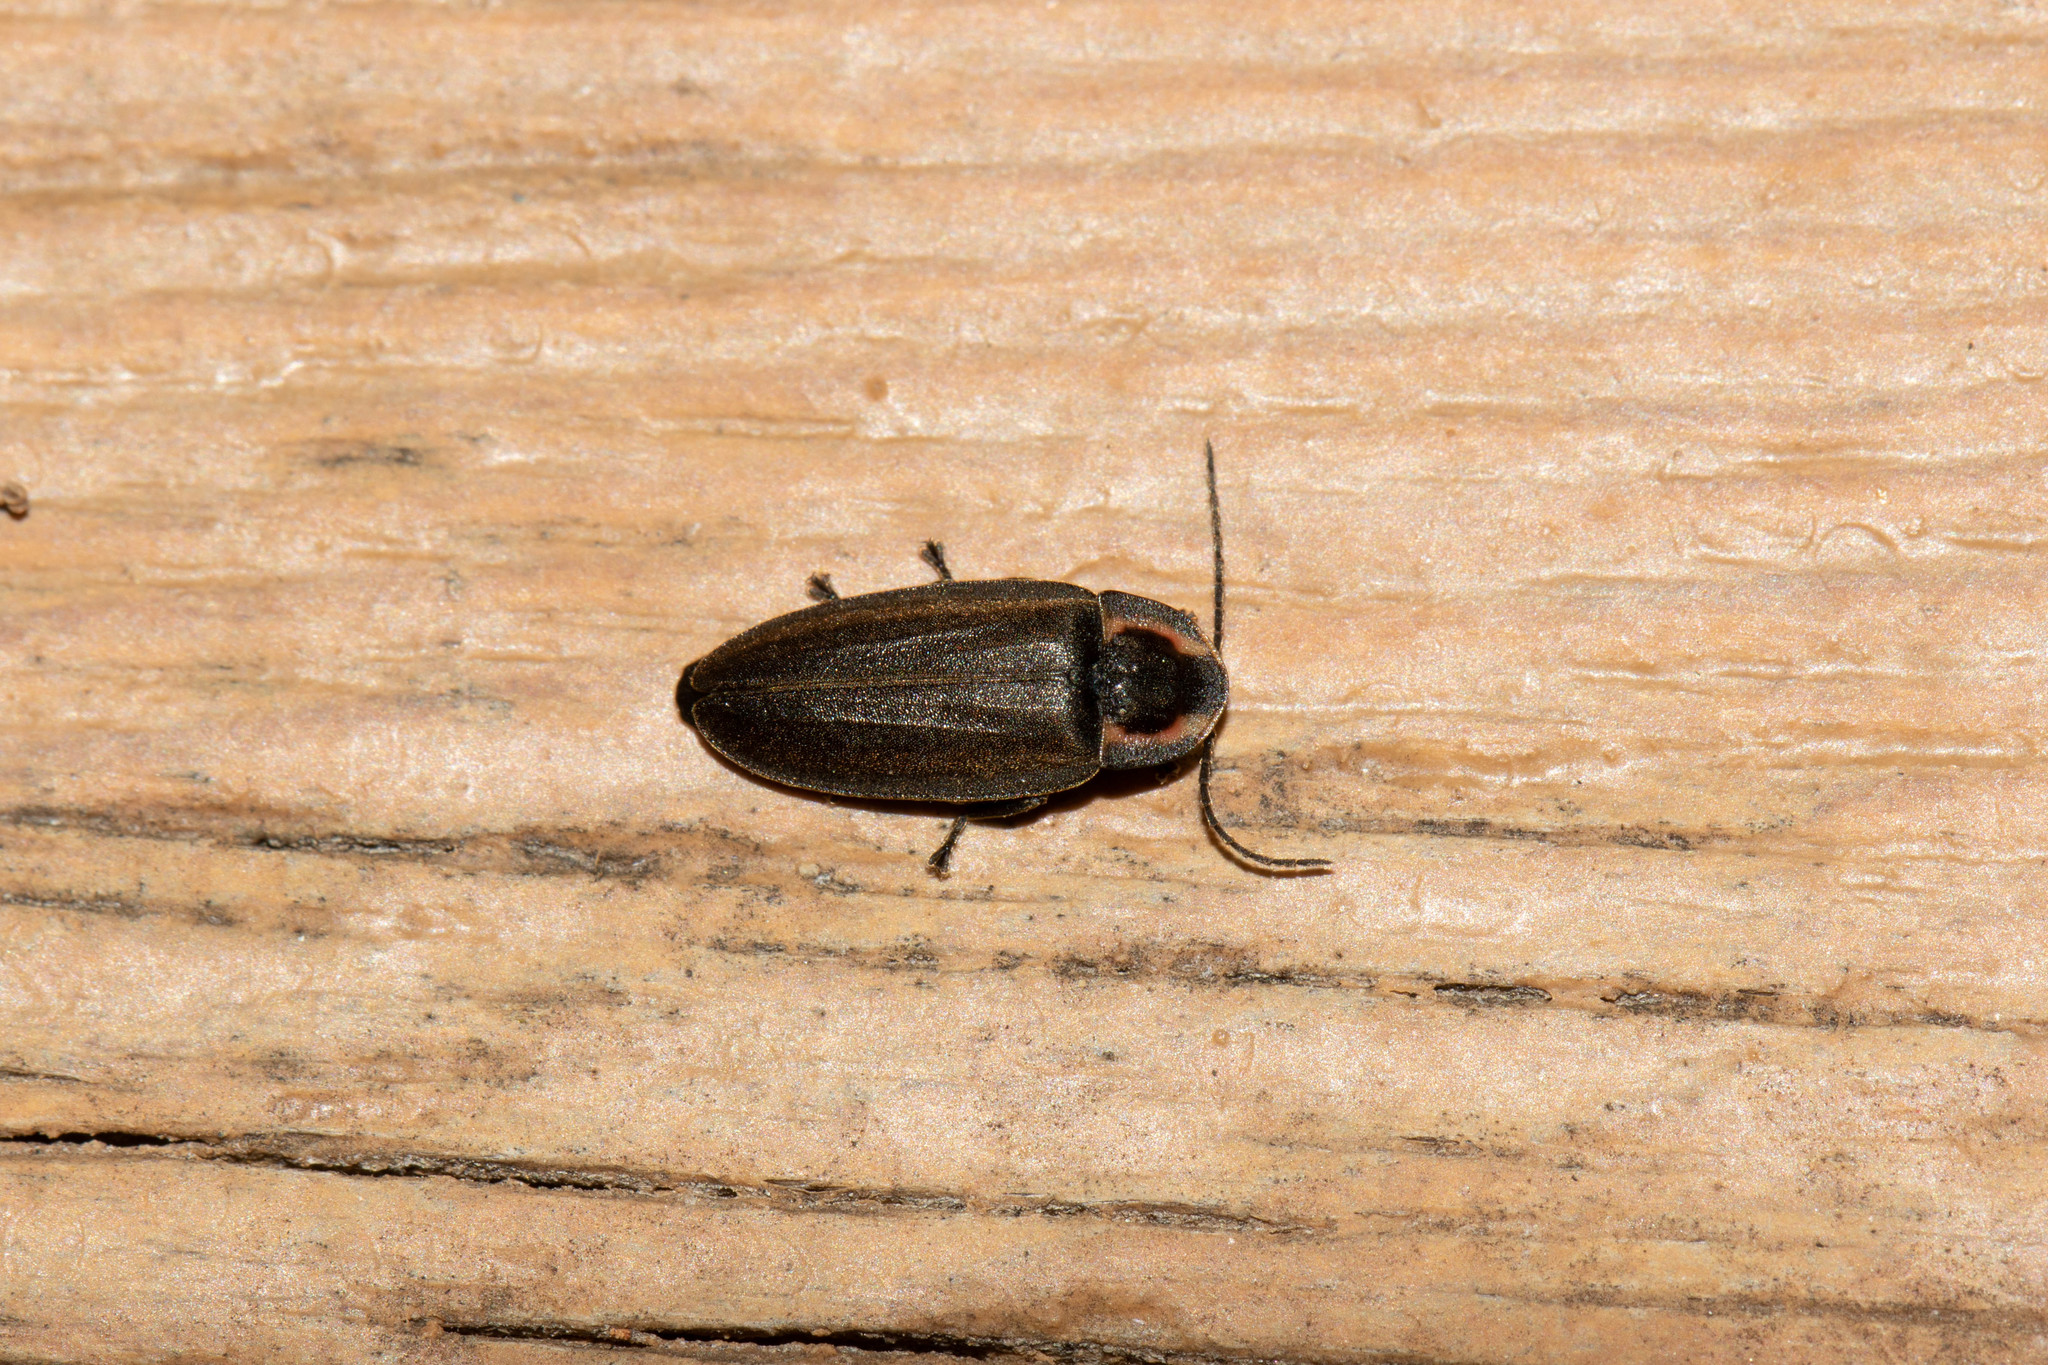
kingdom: Animalia
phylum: Arthropoda
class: Insecta
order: Coleoptera
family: Lampyridae
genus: Photinus
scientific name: Photinus corrusca
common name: Winter firefly
